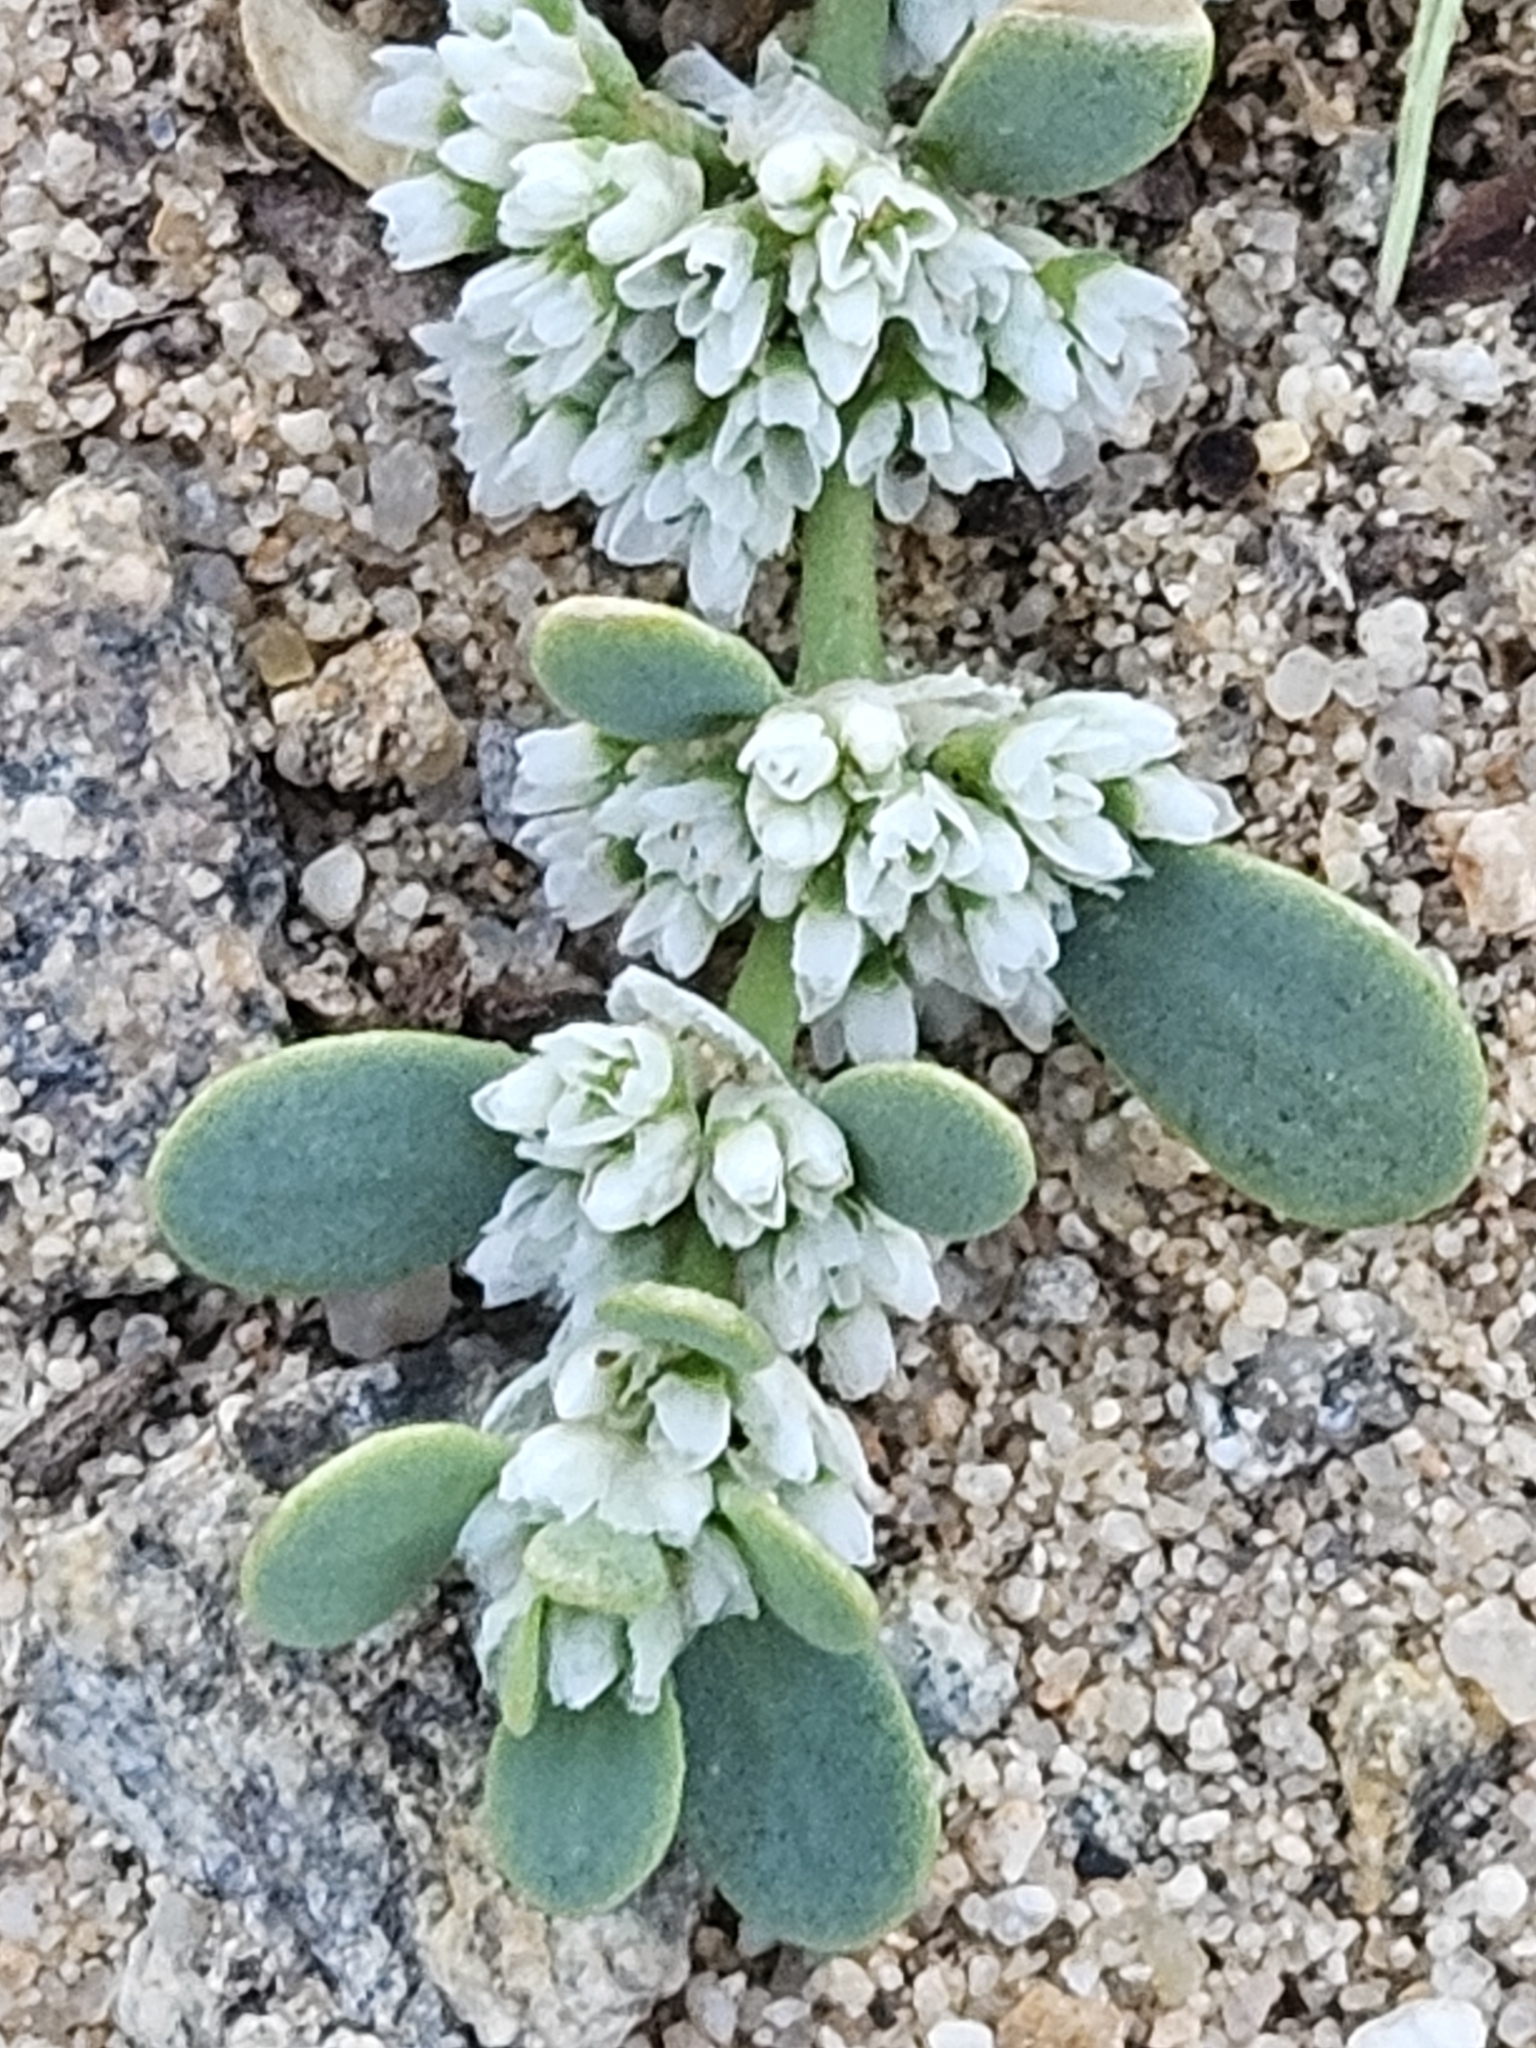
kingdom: Plantae
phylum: Tracheophyta
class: Magnoliopsida
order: Caryophyllales
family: Caryophyllaceae
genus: Achyronychia
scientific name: Achyronychia cooperi
